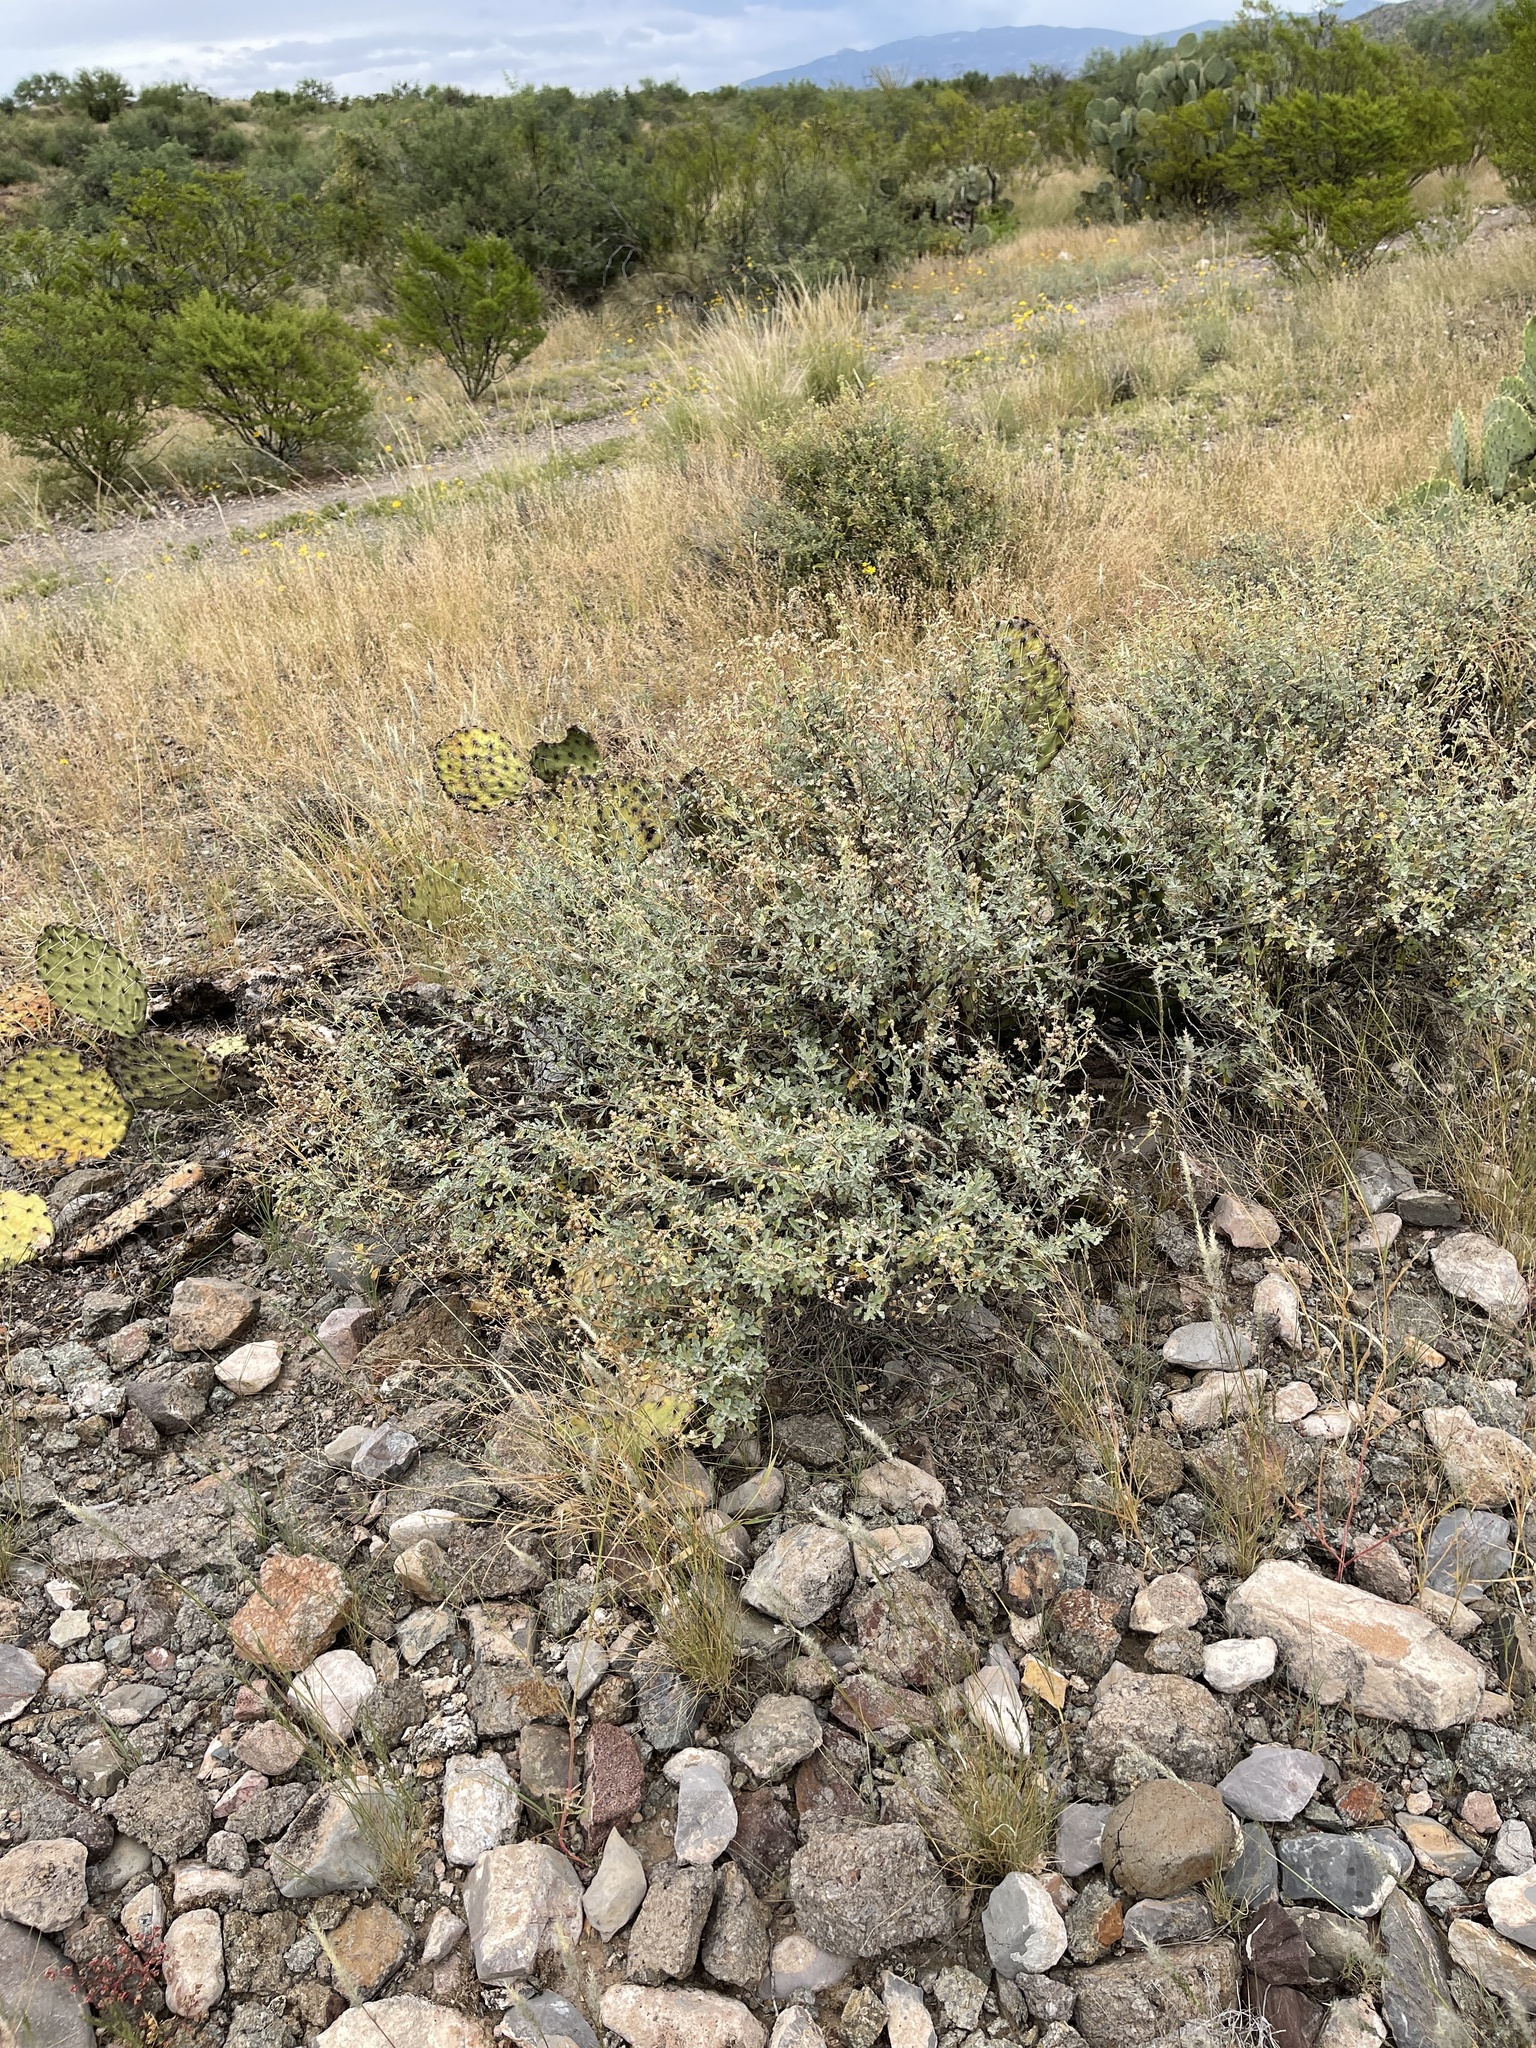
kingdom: Plantae
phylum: Tracheophyta
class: Magnoliopsida
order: Asterales
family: Asteraceae
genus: Parthenium
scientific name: Parthenium incanum
